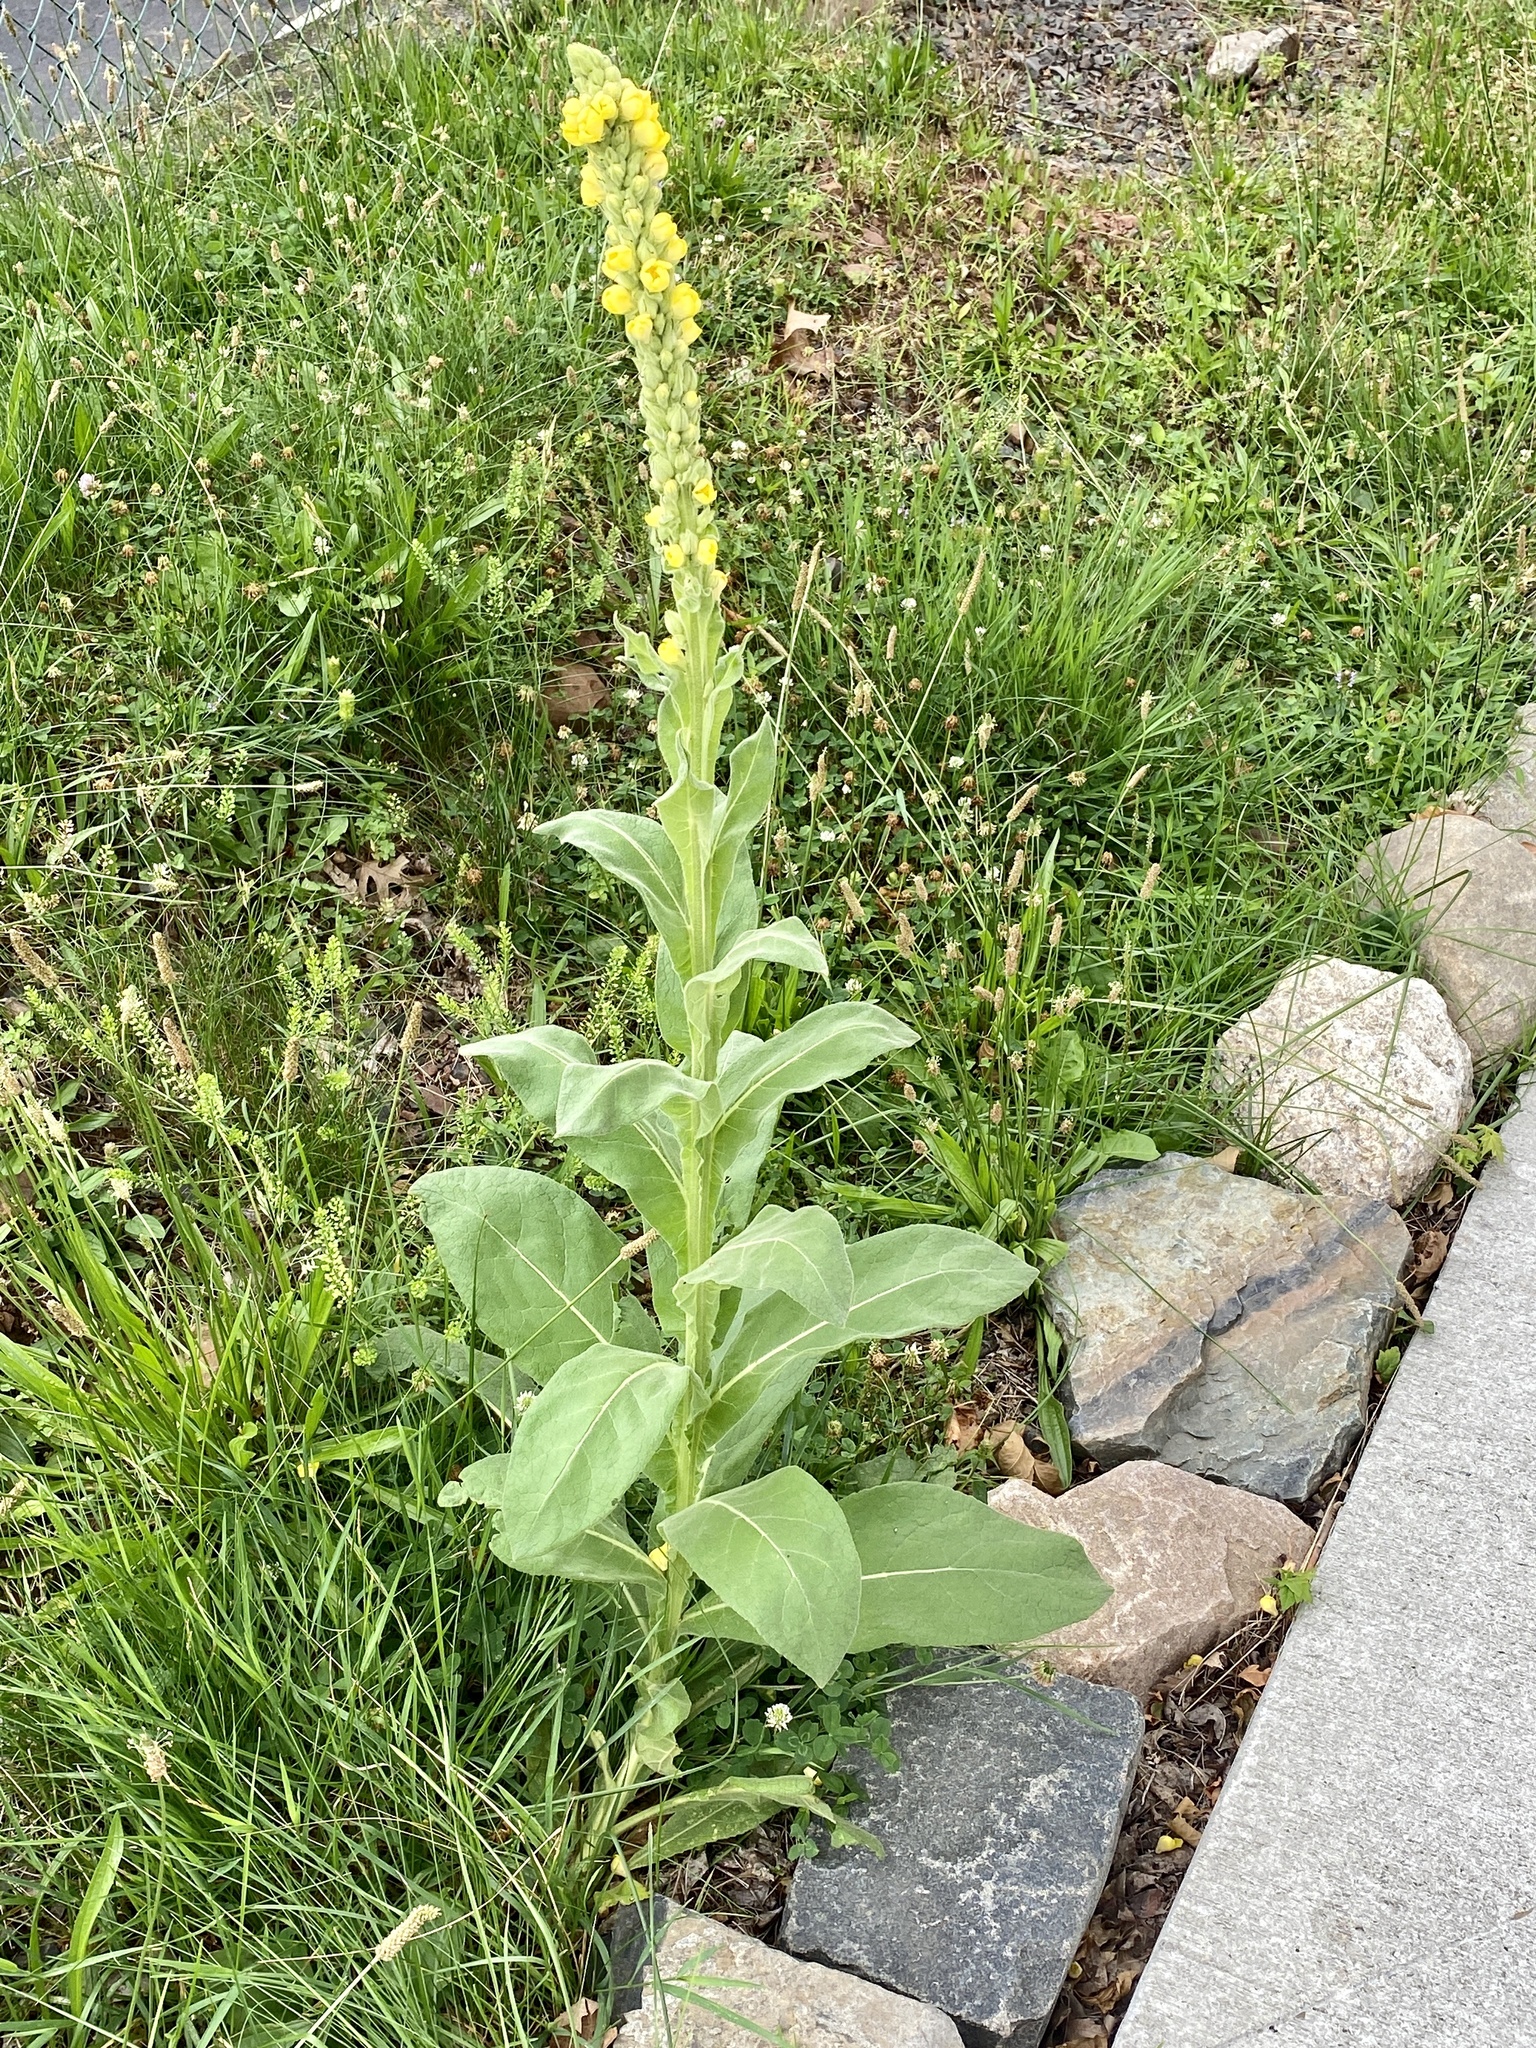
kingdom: Plantae
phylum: Tracheophyta
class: Magnoliopsida
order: Lamiales
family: Scrophulariaceae
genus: Verbascum
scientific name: Verbascum thapsus
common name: Common mullein
